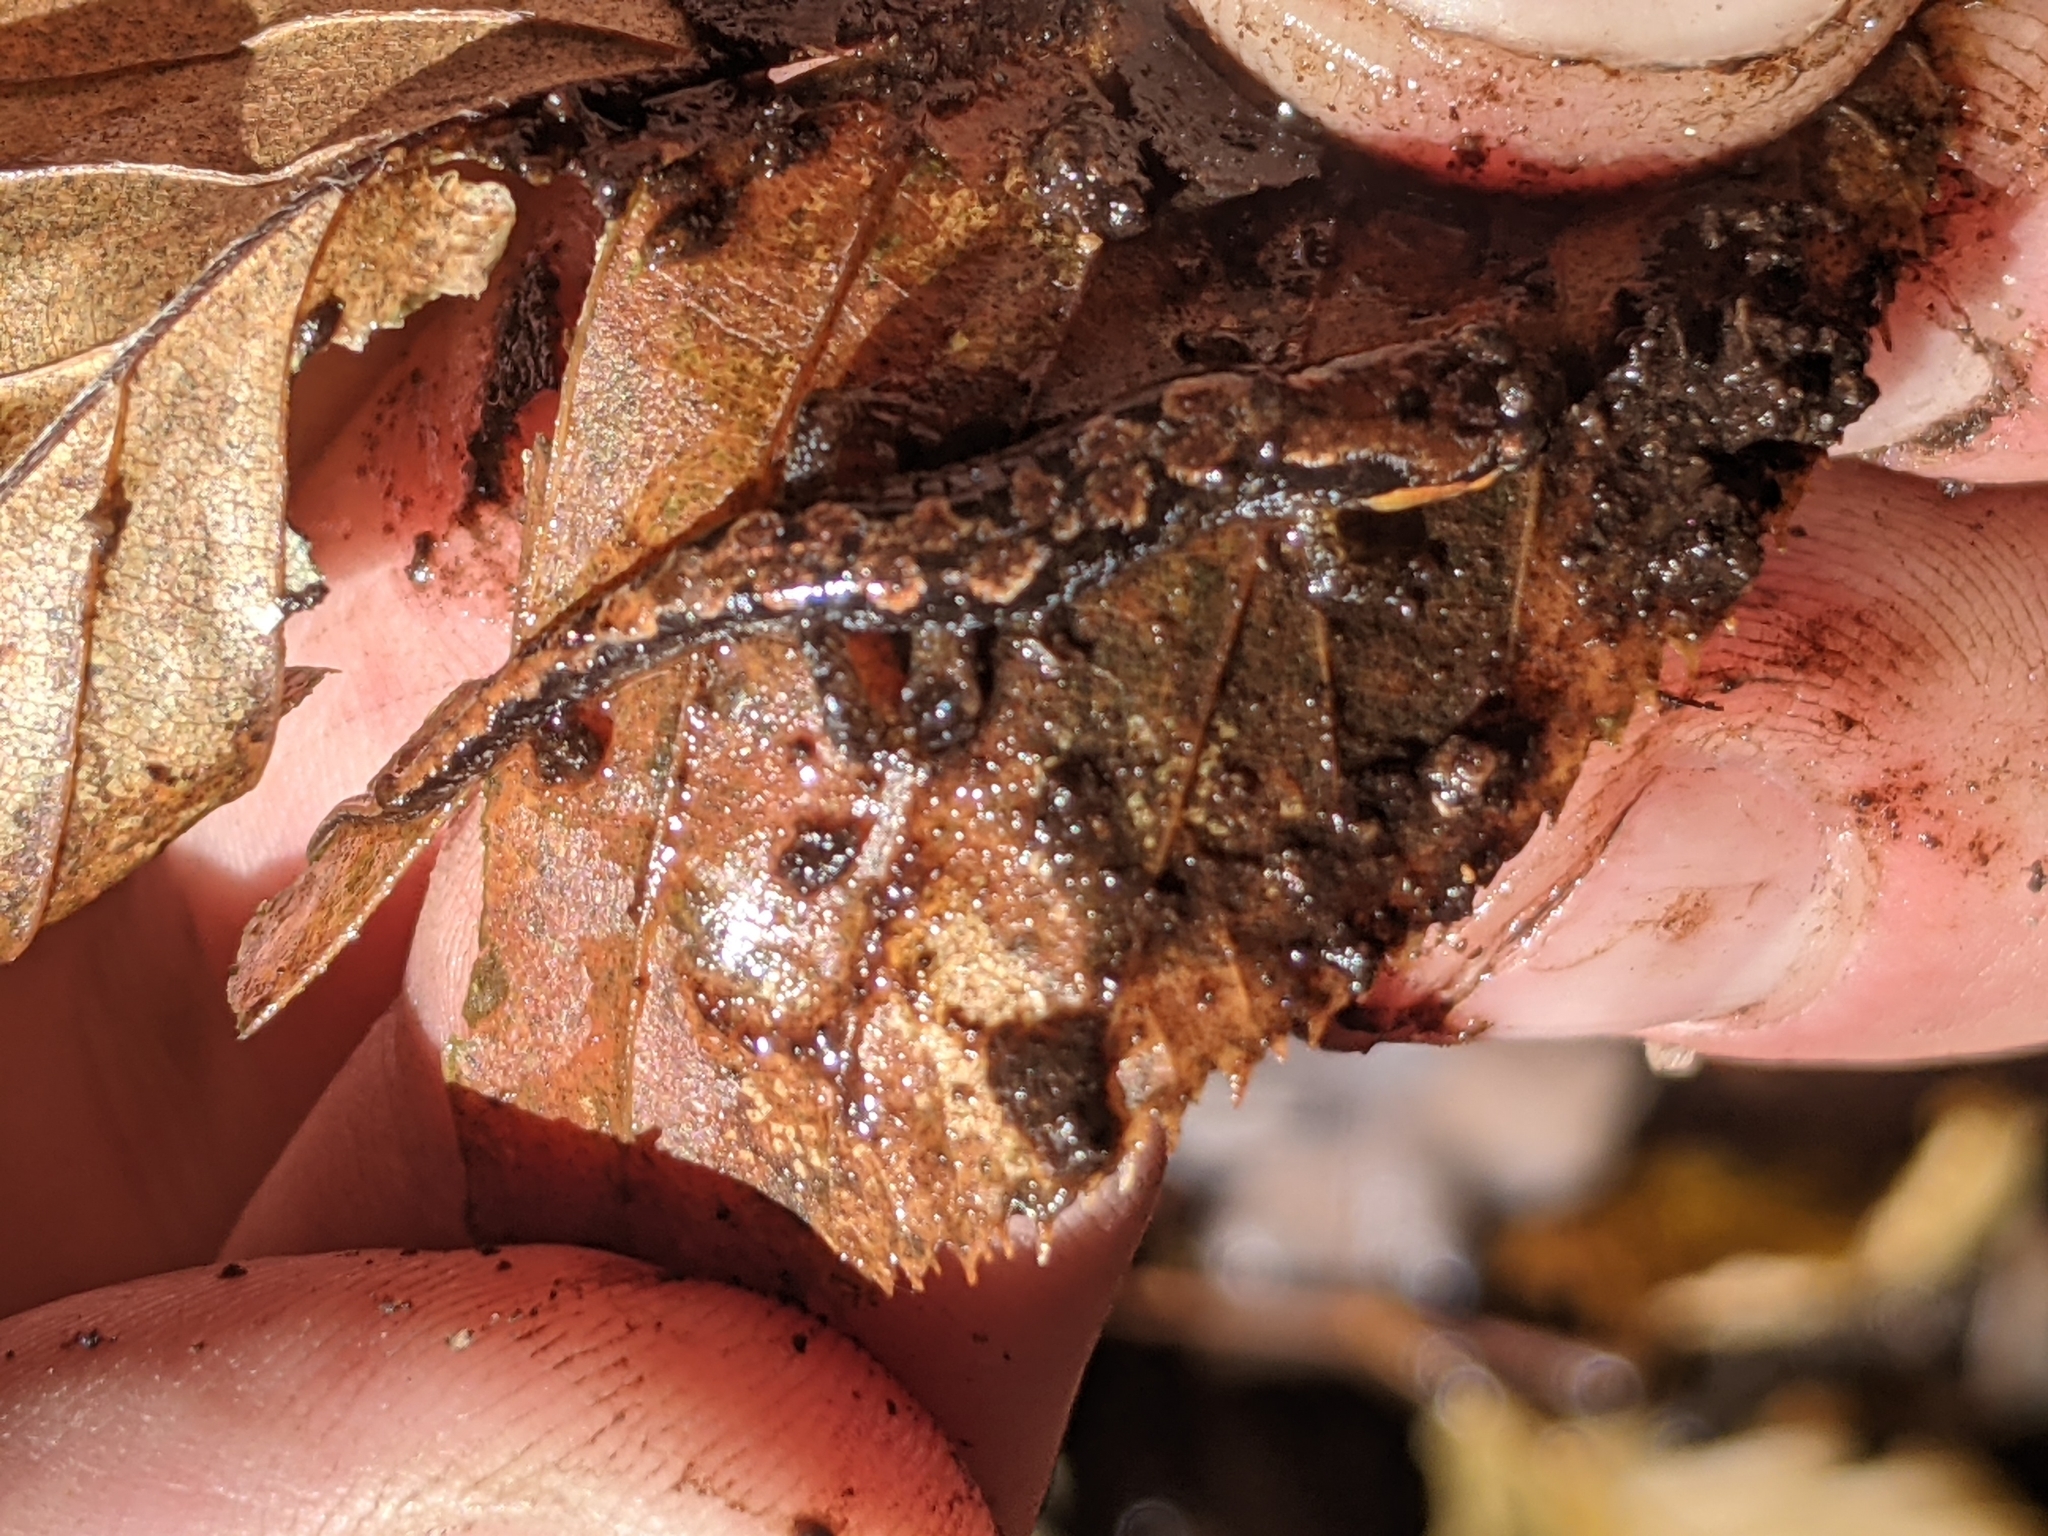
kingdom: Animalia
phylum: Chordata
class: Amphibia
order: Caudata
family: Plethodontidae
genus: Desmognathus
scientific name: Desmognathus ocoee
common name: Ocoee salamander
